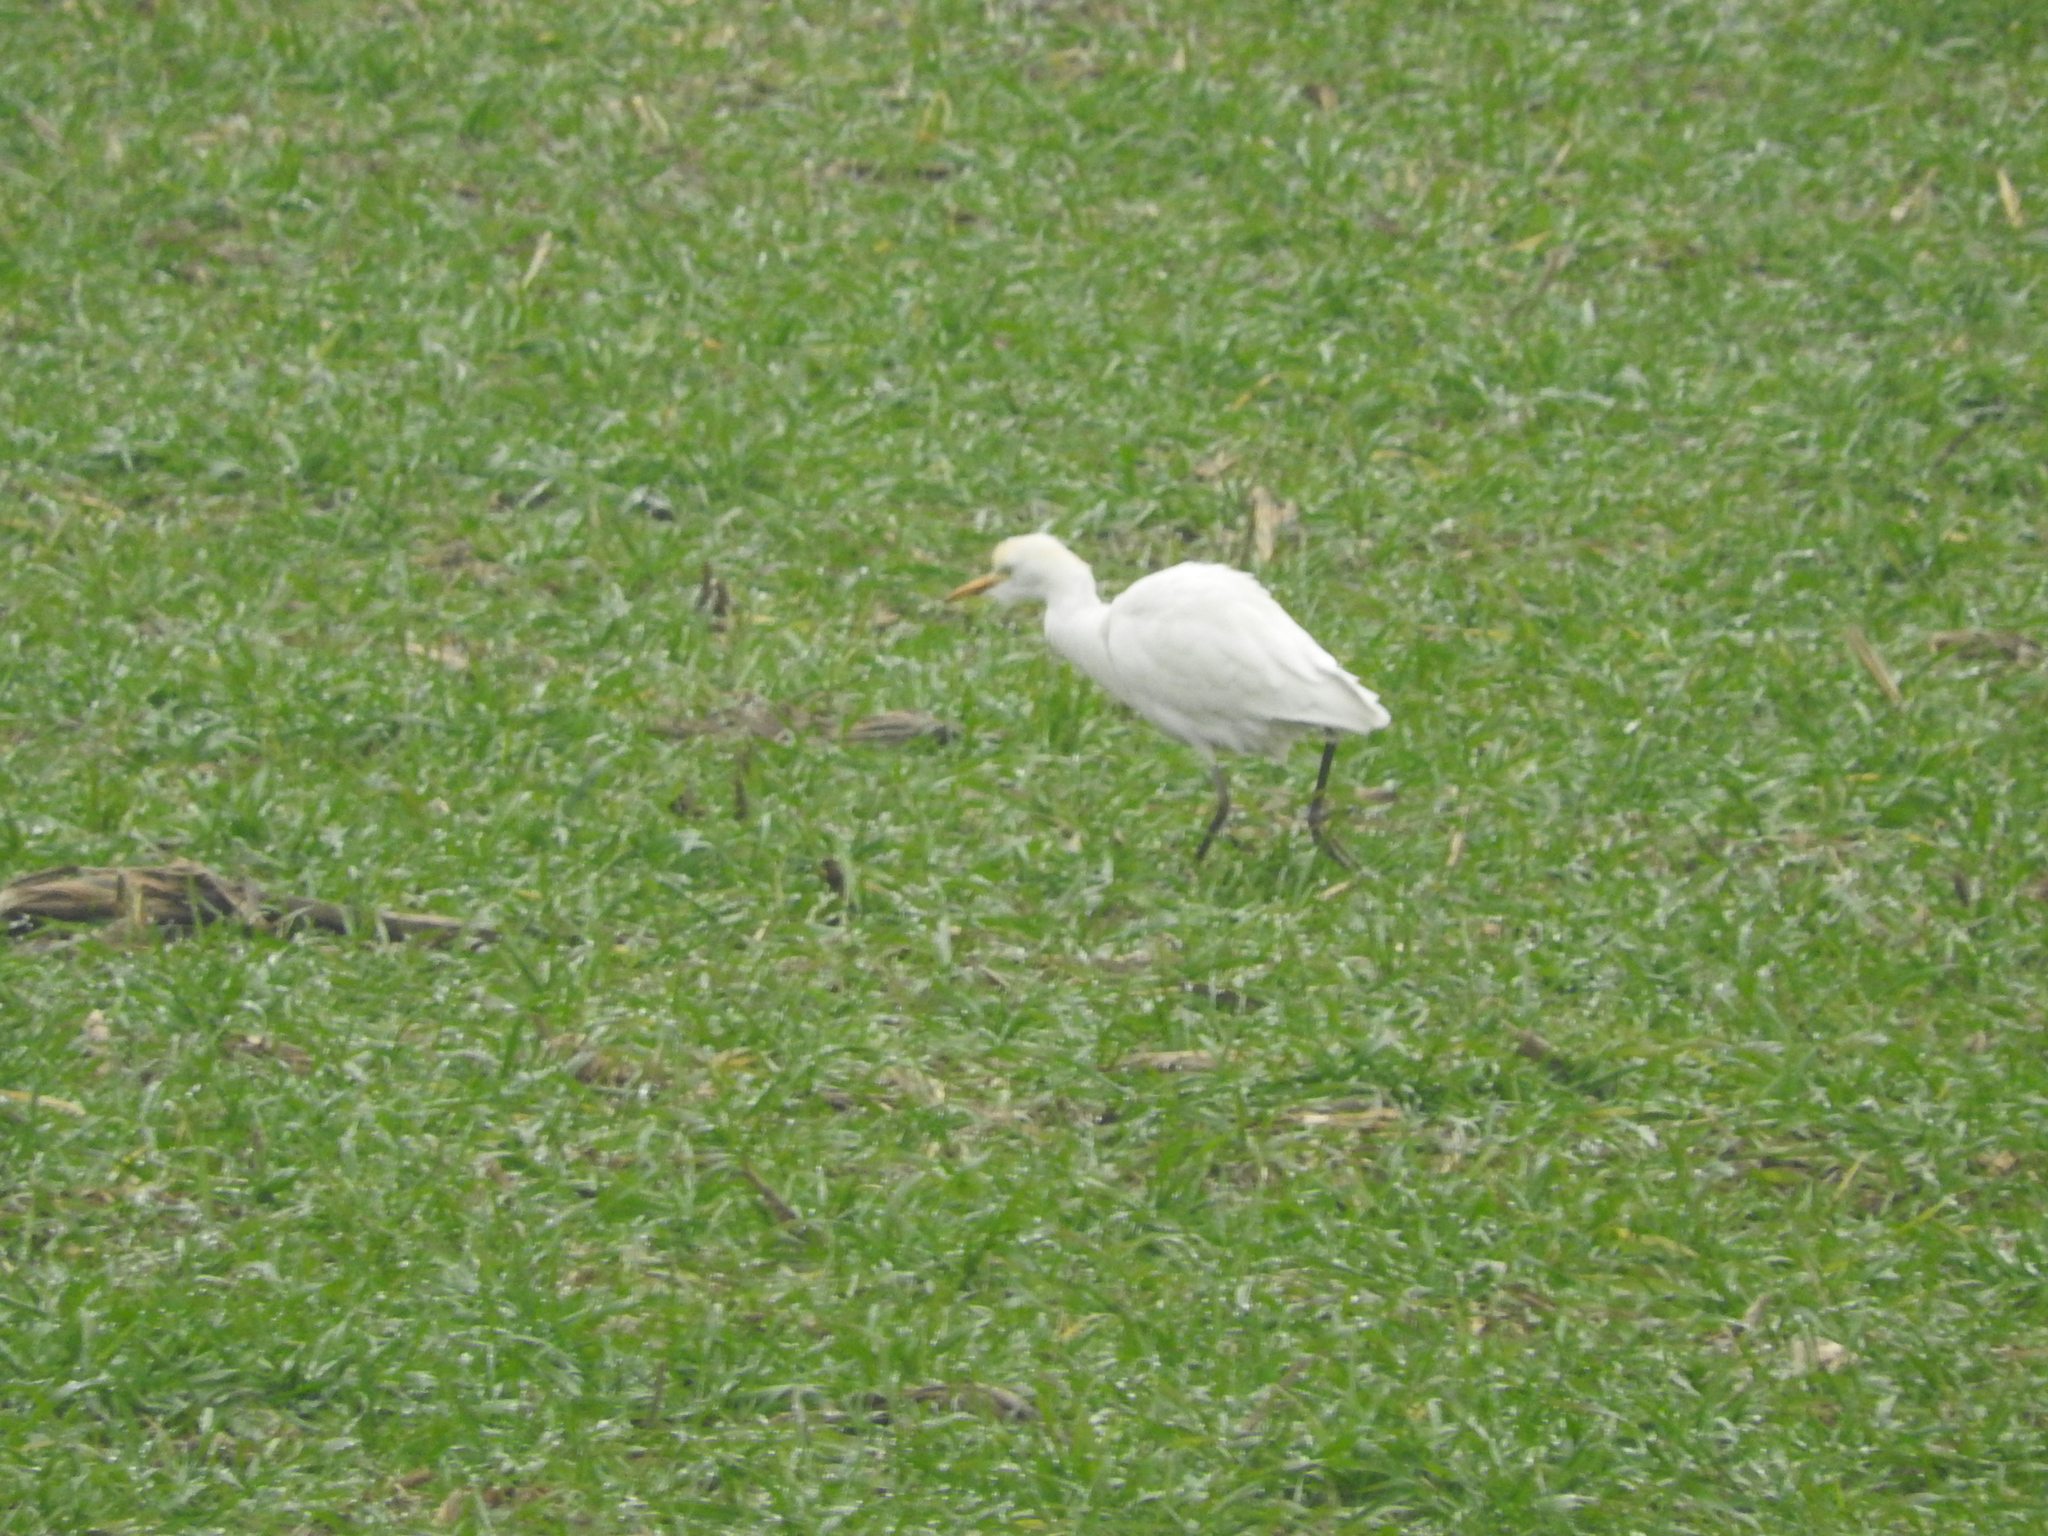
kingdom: Animalia
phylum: Chordata
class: Aves
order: Pelecaniformes
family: Ardeidae
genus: Bubulcus
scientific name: Bubulcus ibis
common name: Cattle egret
